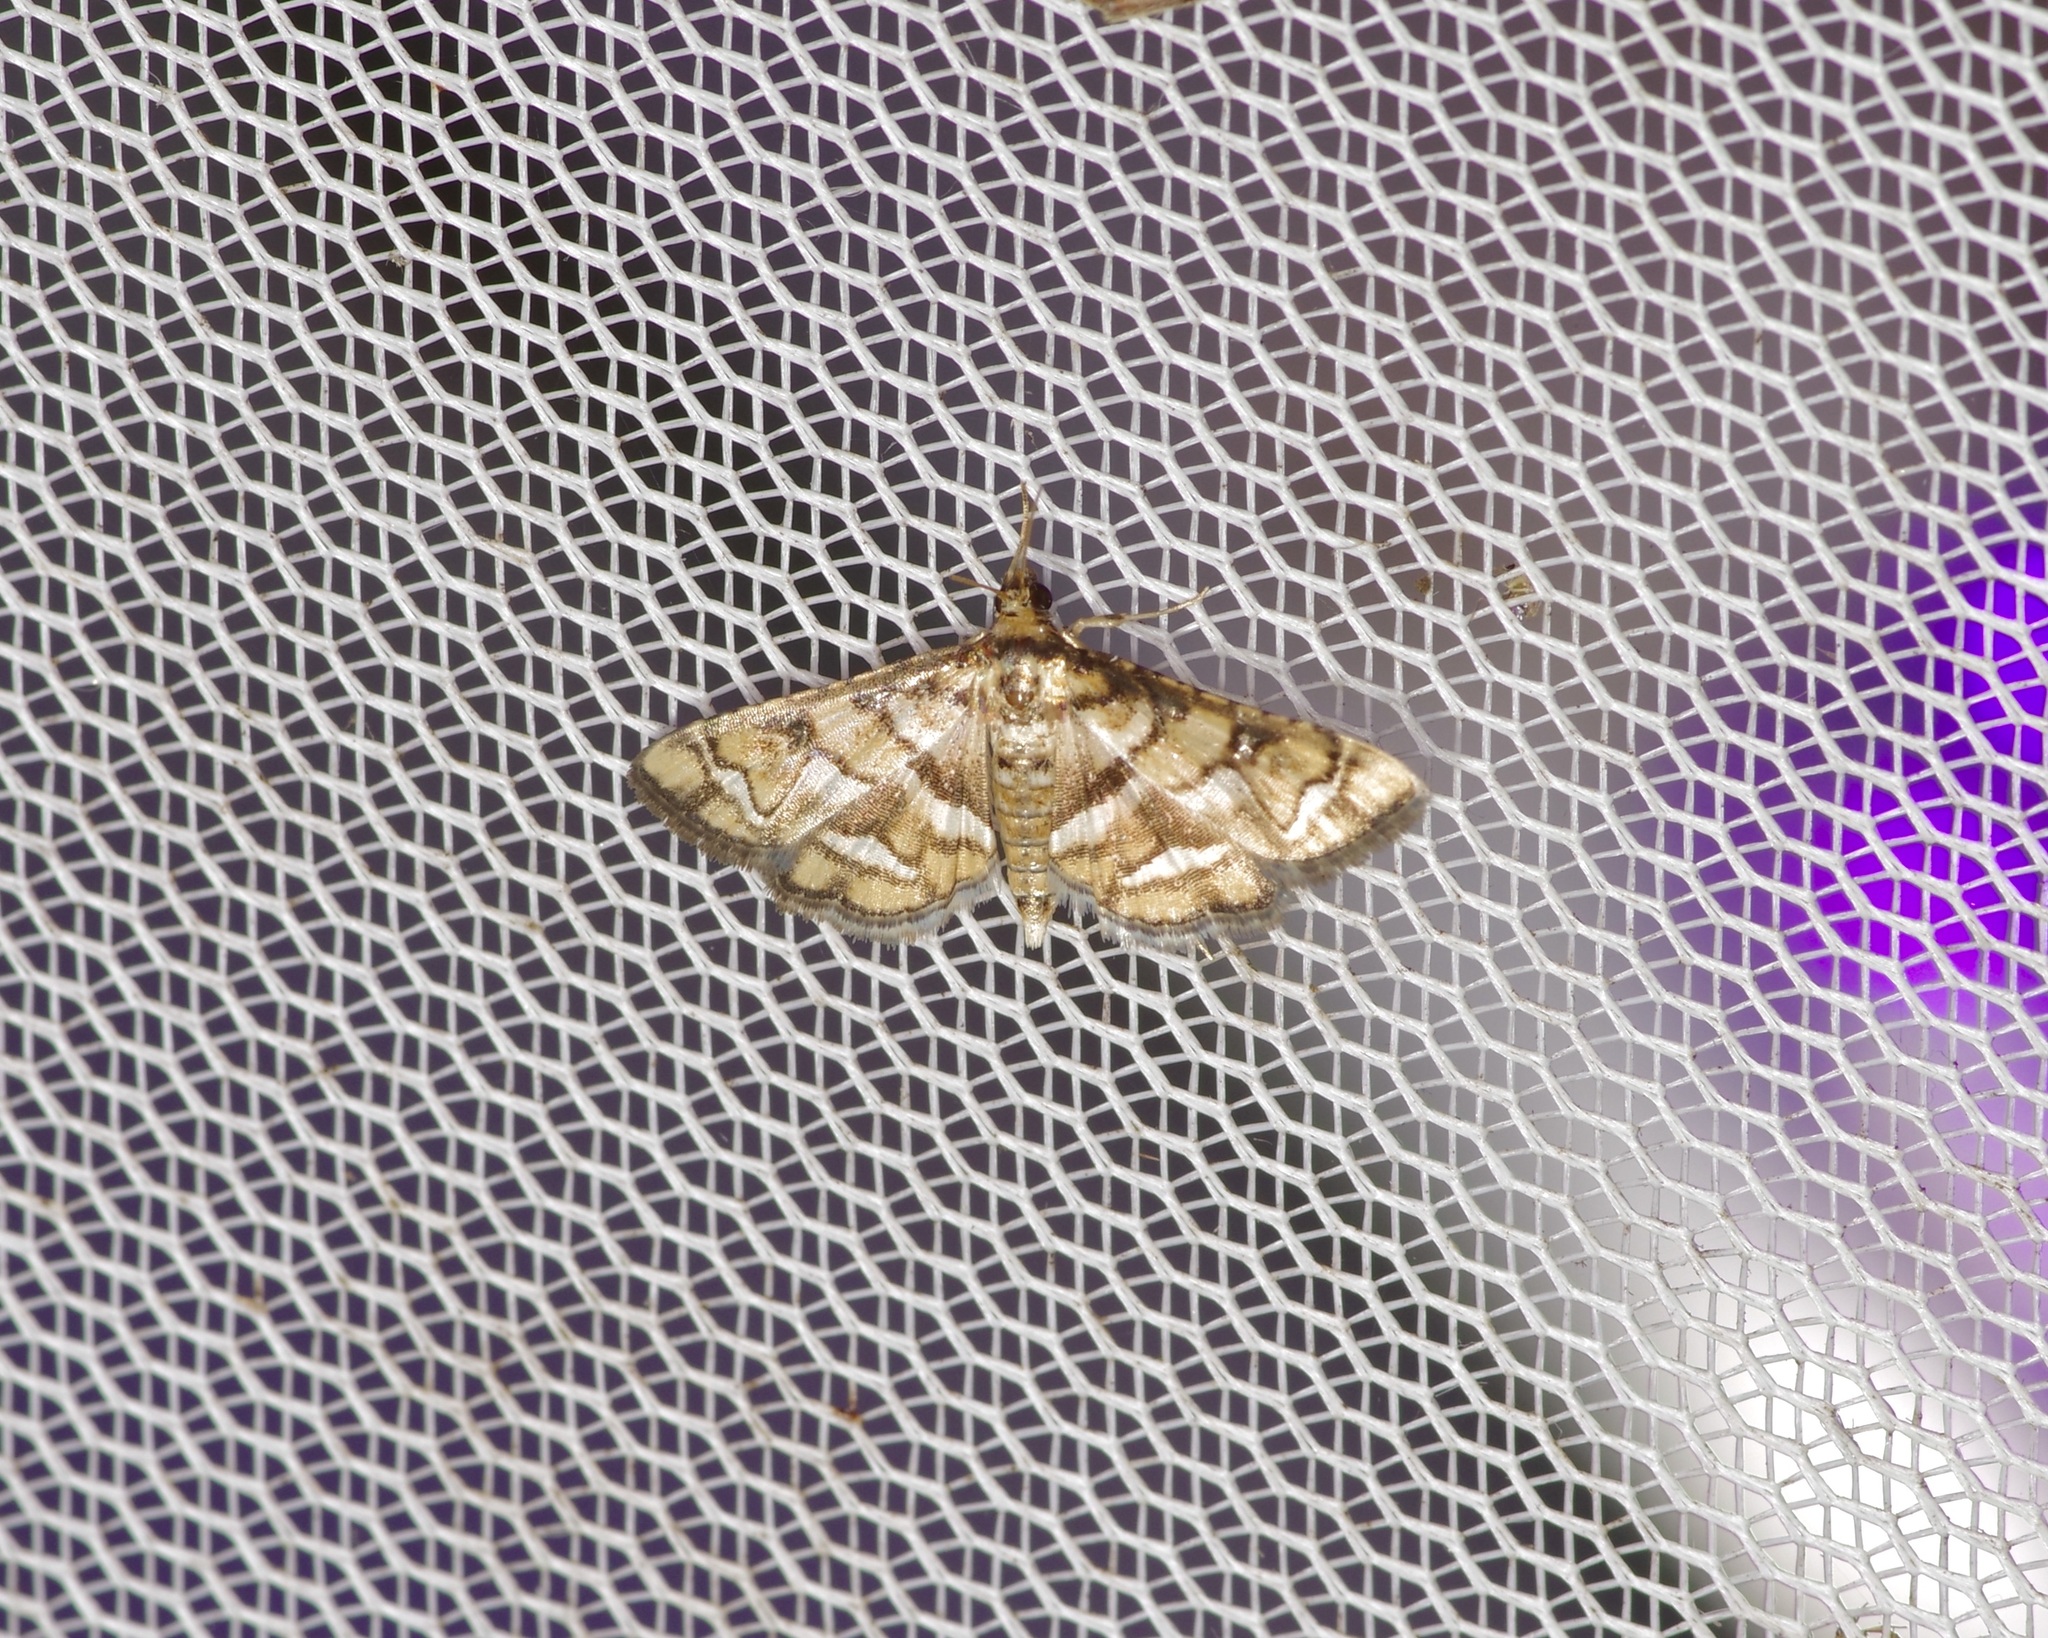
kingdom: Animalia
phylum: Arthropoda
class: Insecta
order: Lepidoptera
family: Crambidae
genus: Hileithia
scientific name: Hileithia magualis
